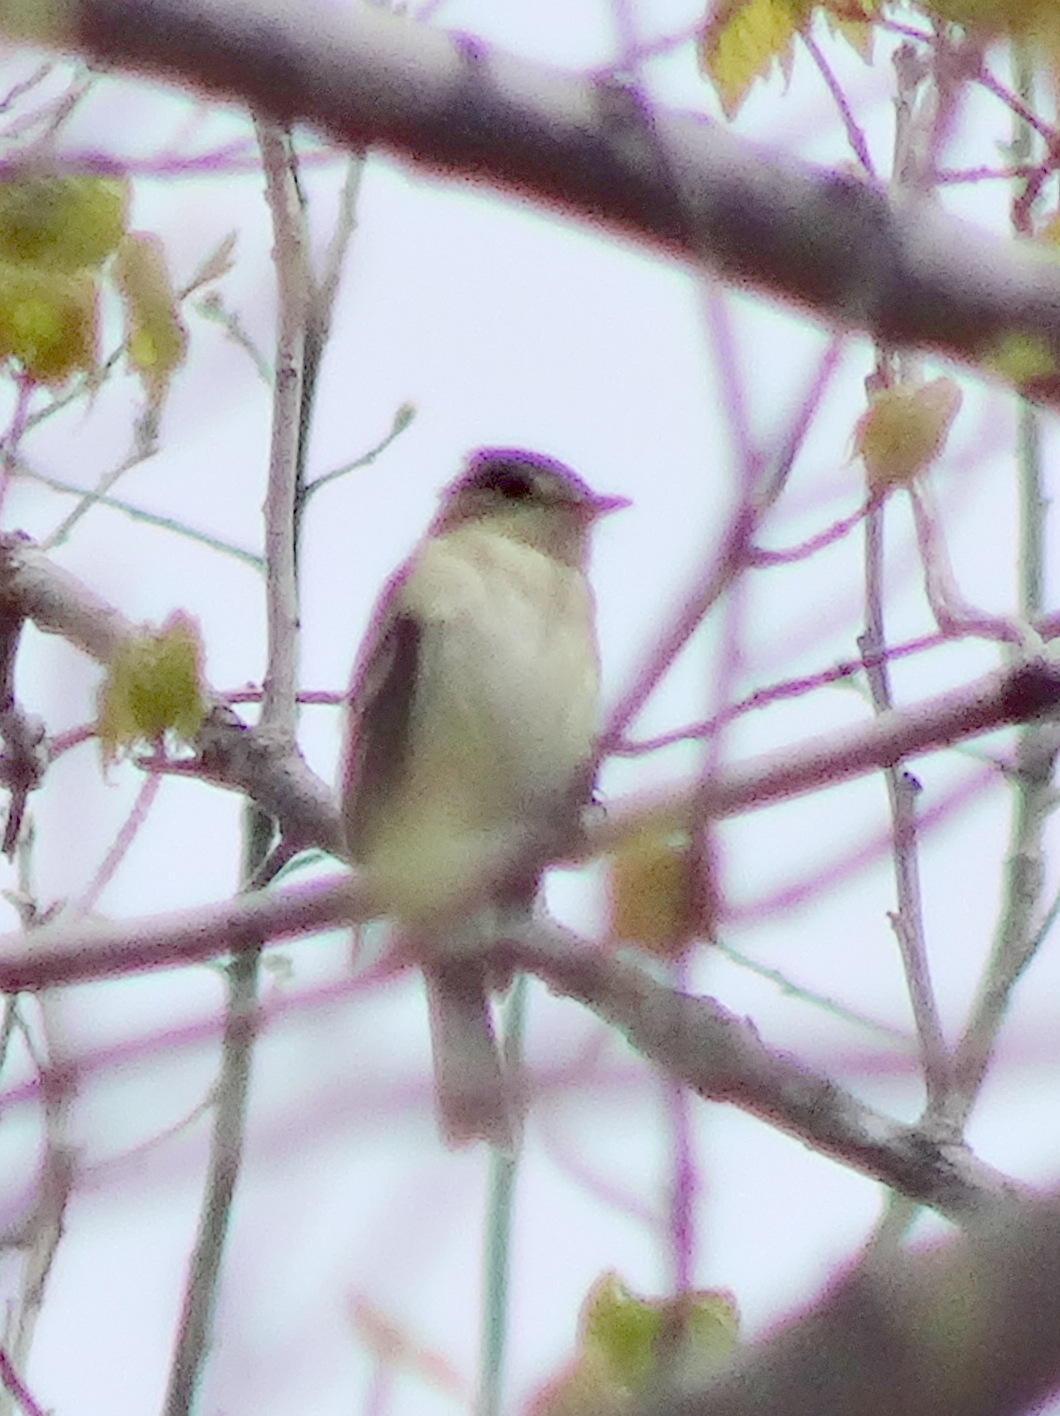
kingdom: Animalia
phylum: Chordata
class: Aves
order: Passeriformes
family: Tyrannidae
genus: Empidonax
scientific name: Empidonax
